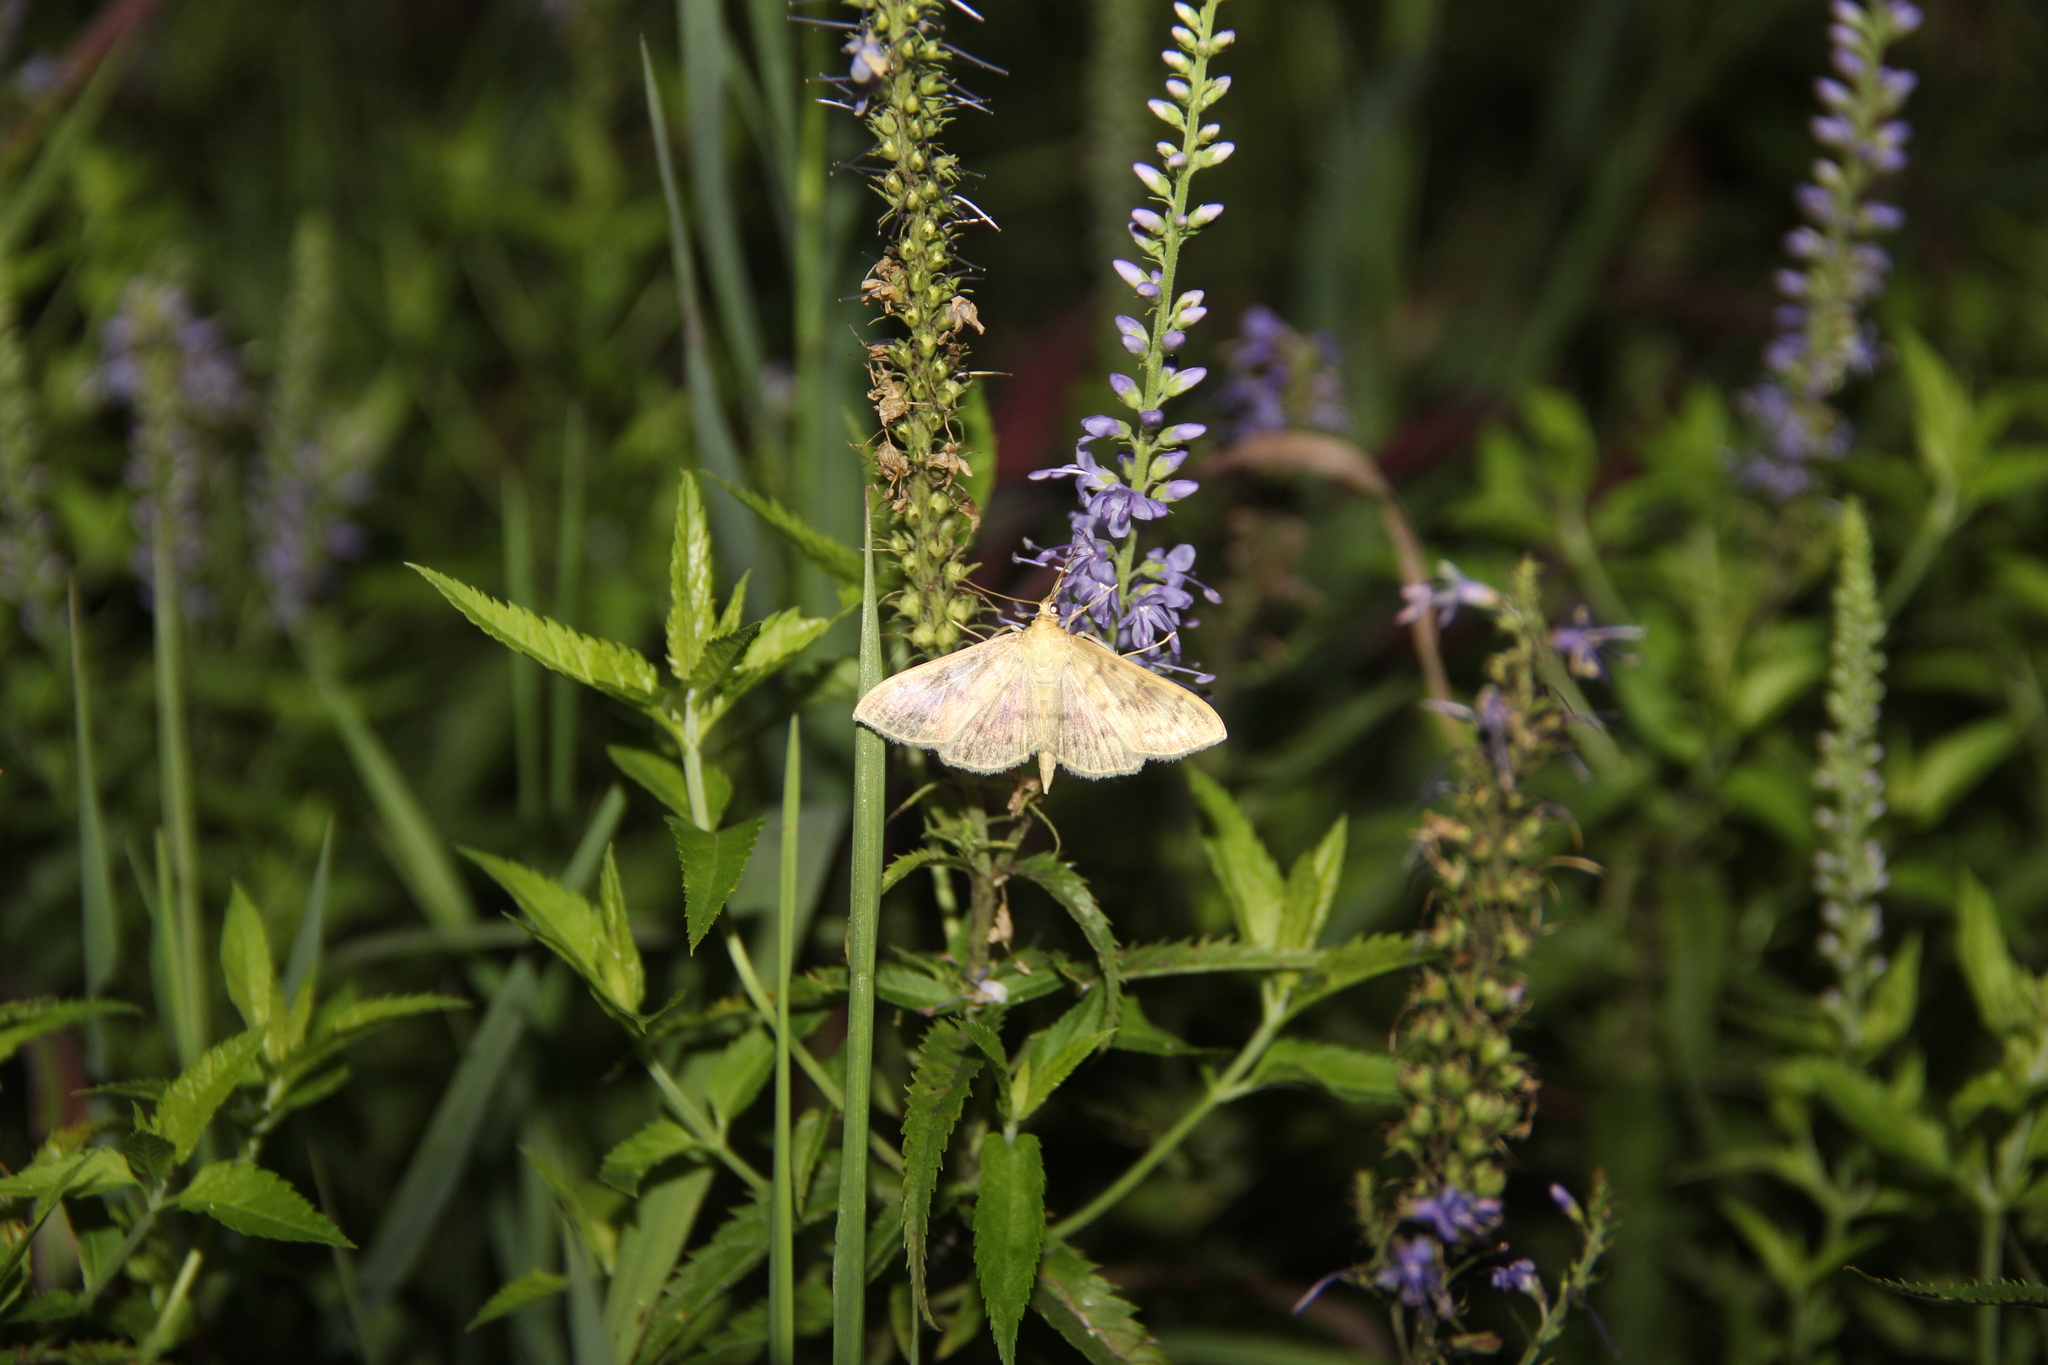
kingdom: Animalia
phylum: Arthropoda
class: Insecta
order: Lepidoptera
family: Crambidae
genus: Patania
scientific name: Patania ruralis
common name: Mother of pearl
